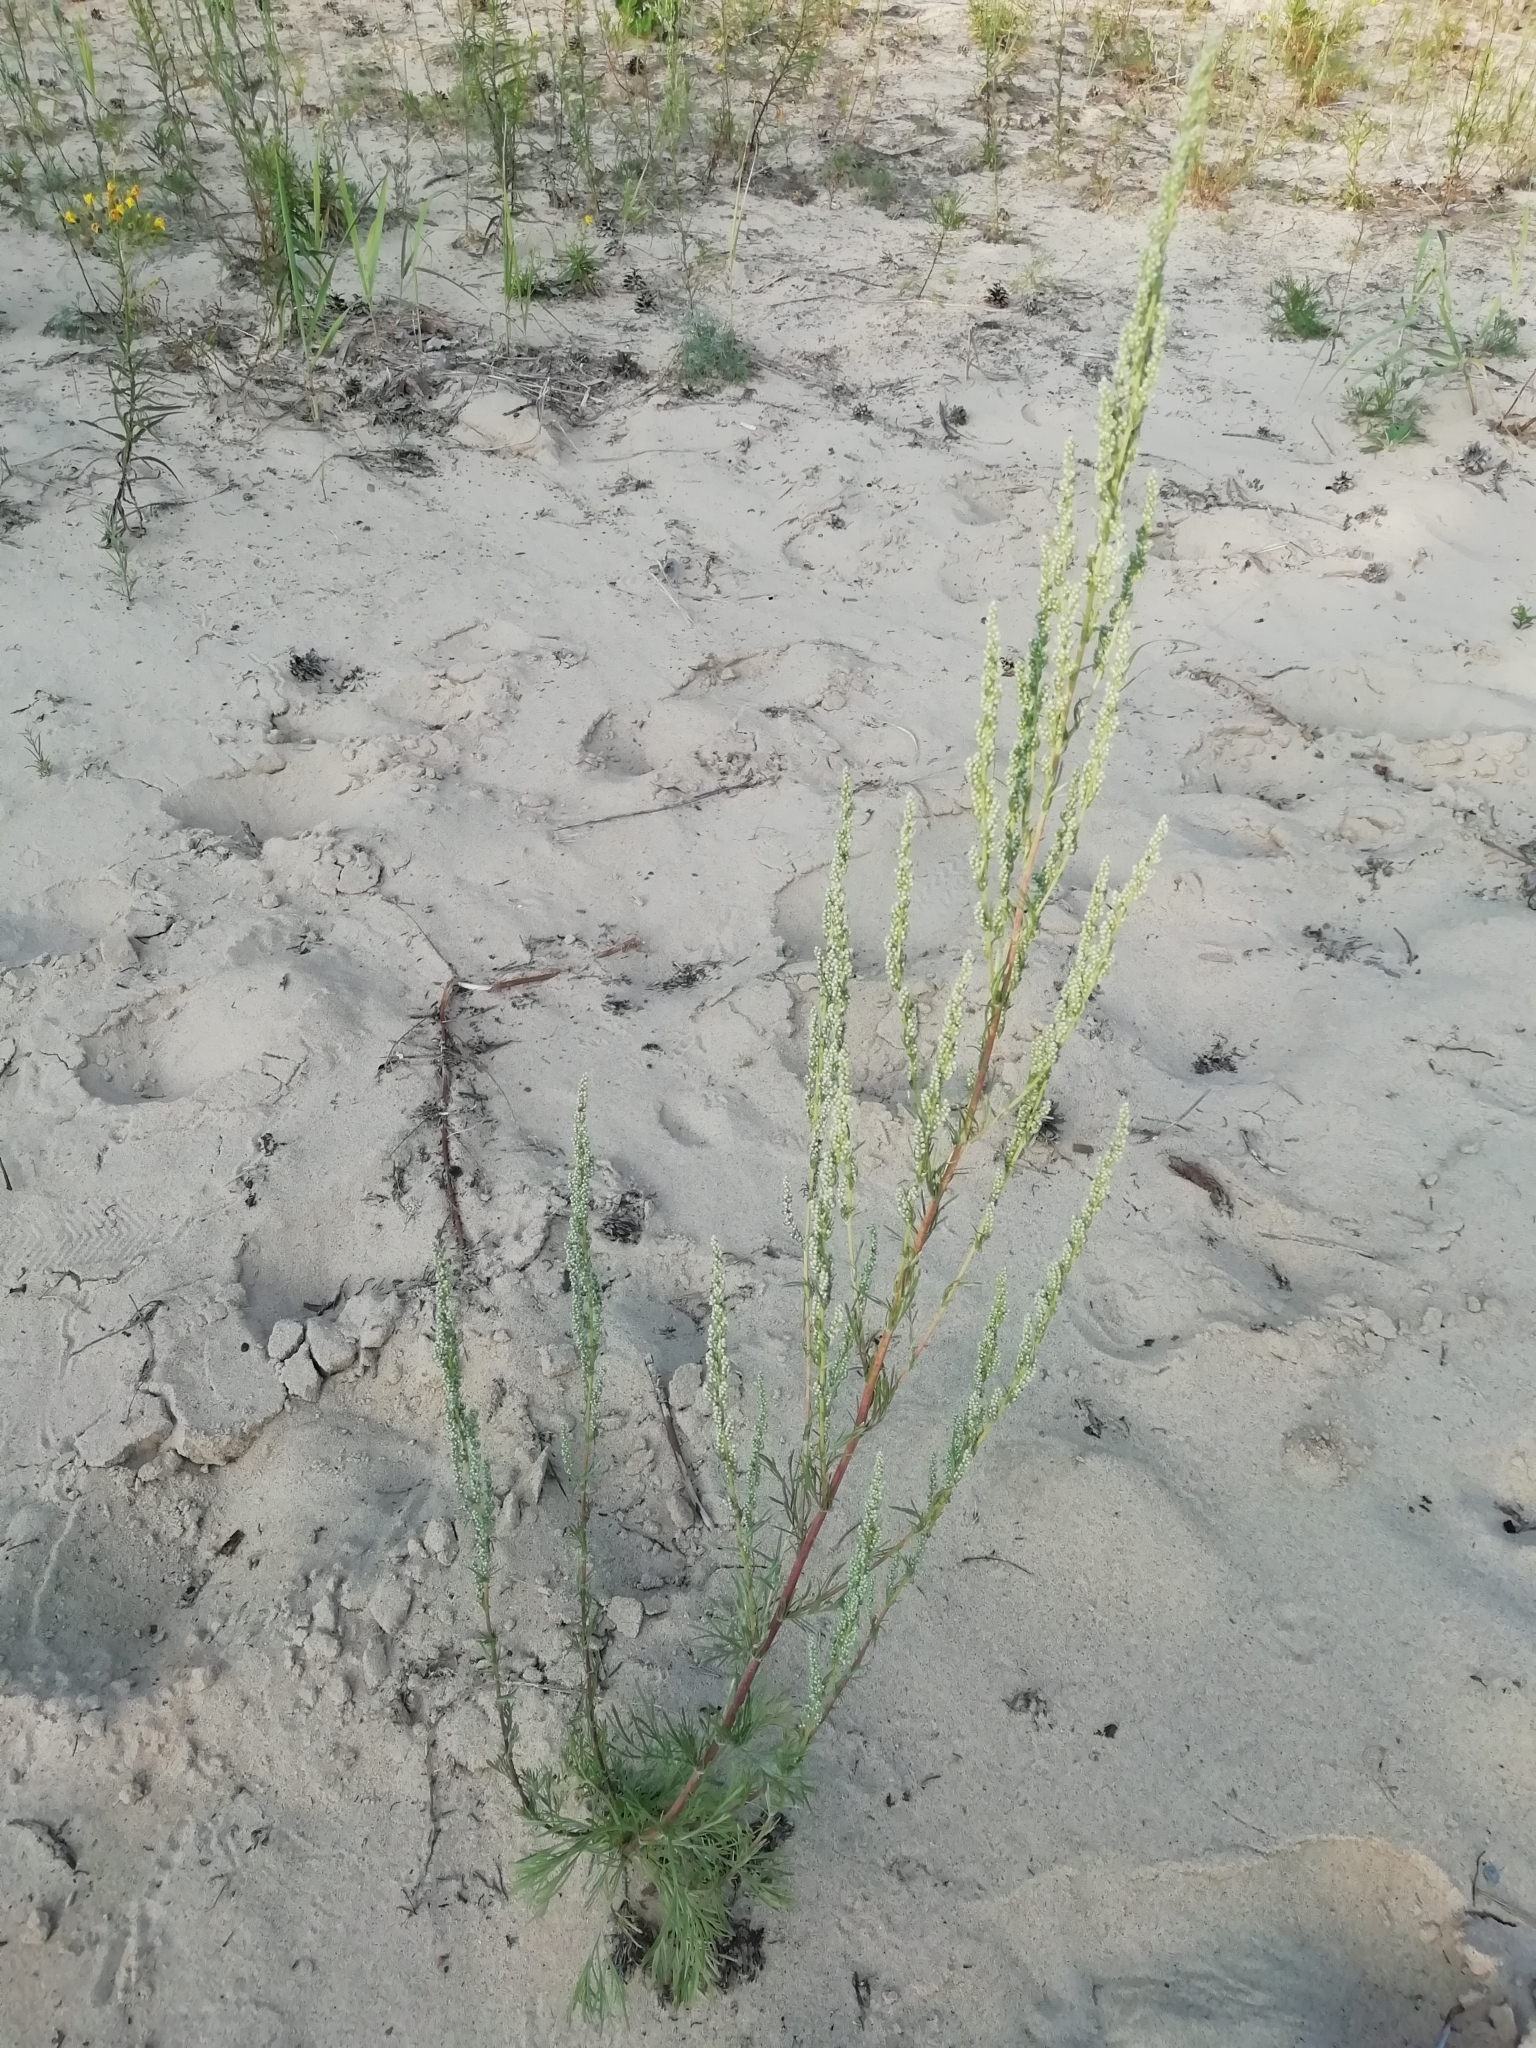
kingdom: Plantae
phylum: Tracheophyta
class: Magnoliopsida
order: Asterales
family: Asteraceae
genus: Artemisia
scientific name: Artemisia campestris
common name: Field wormwood
